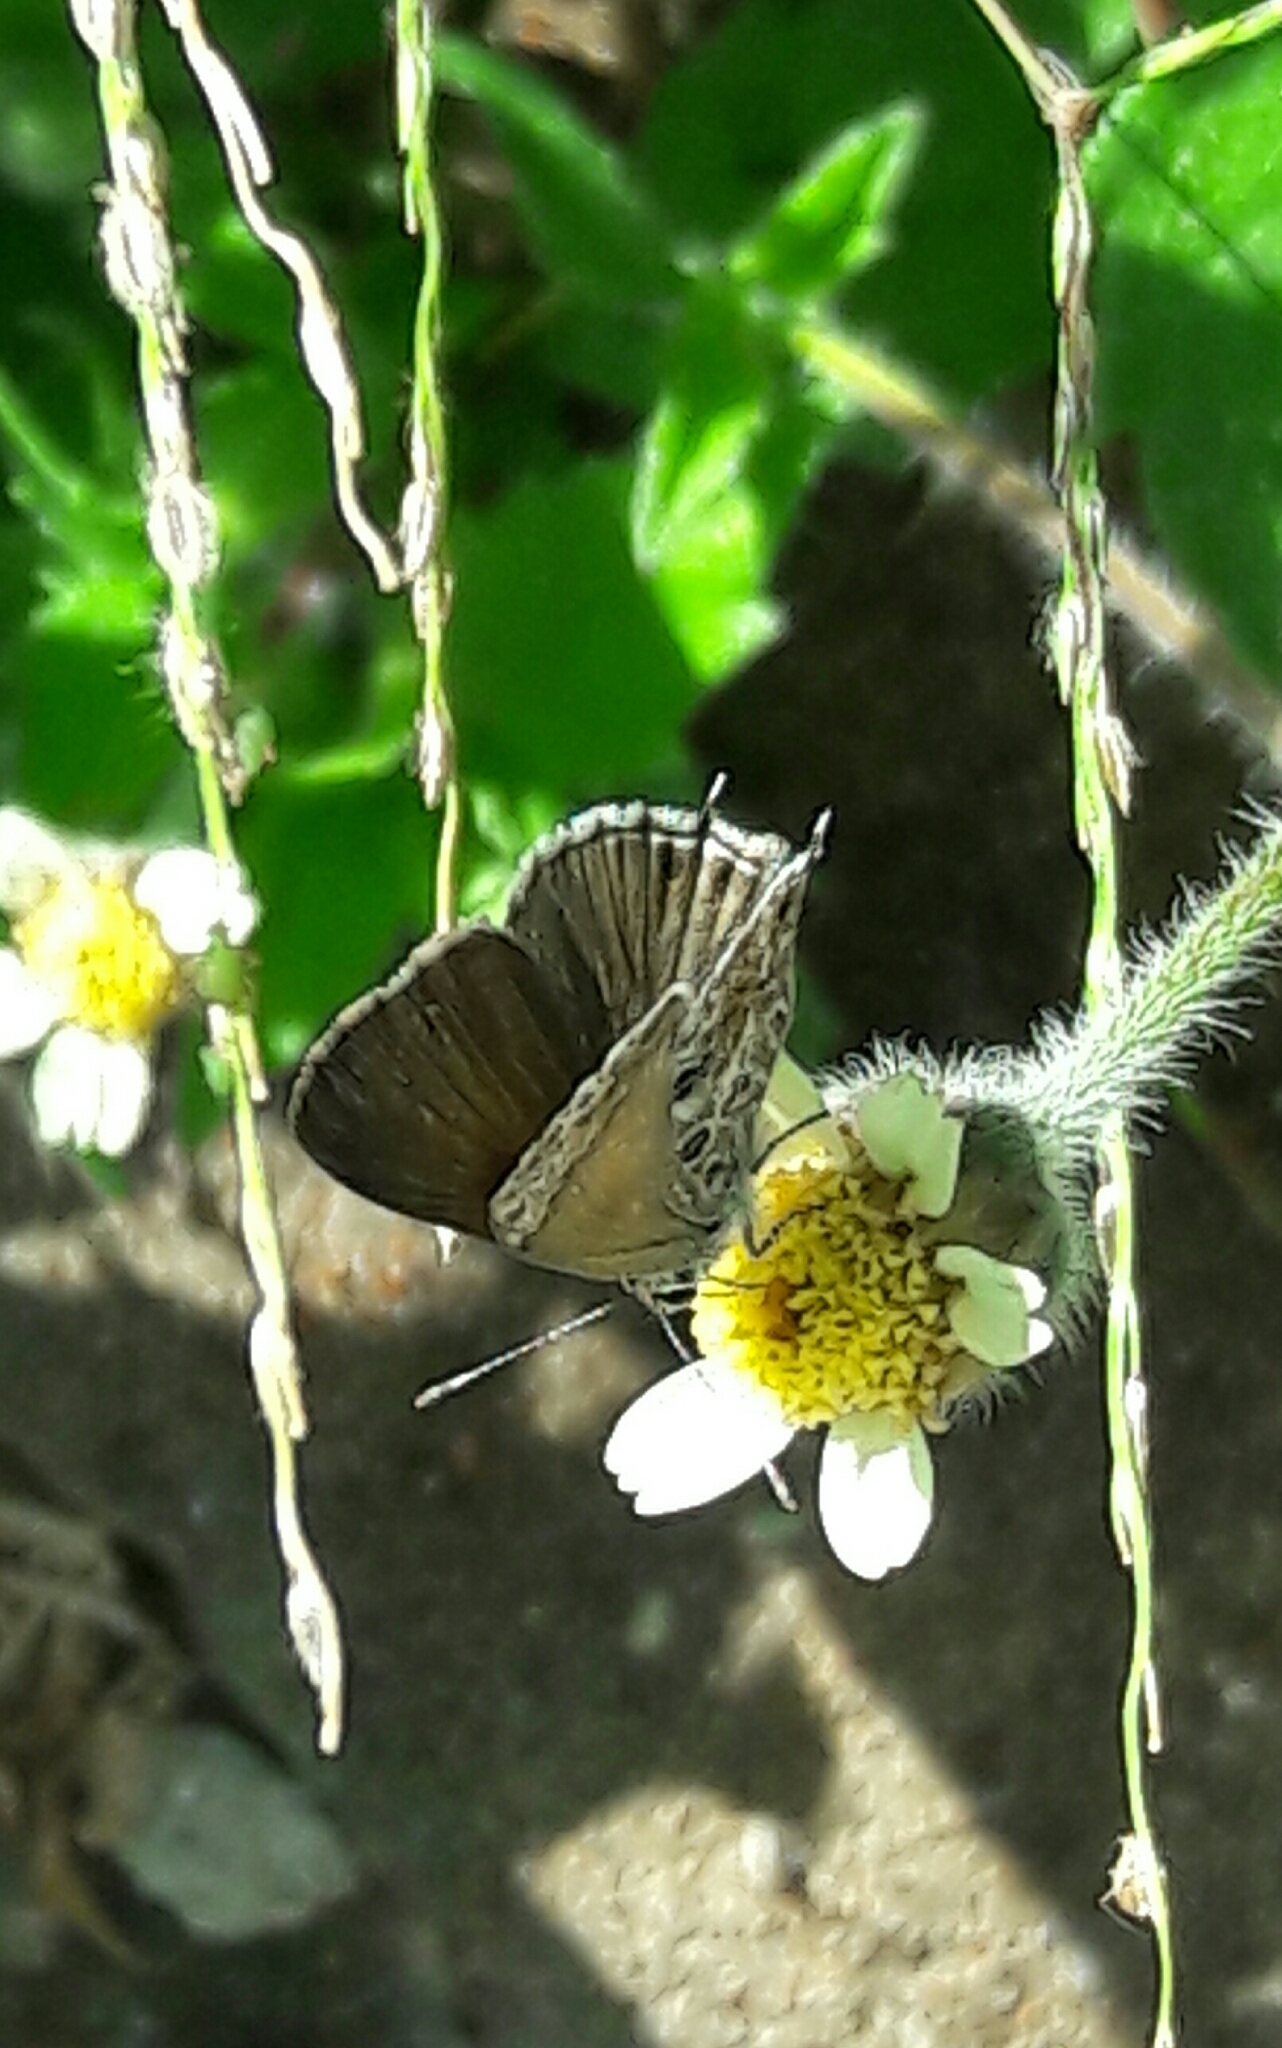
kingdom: Animalia
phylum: Arthropoda
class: Insecta
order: Lepidoptera
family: Lycaenidae
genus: Strymon
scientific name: Strymon astiocha
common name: Gray-spotted scrub-hairstreak
